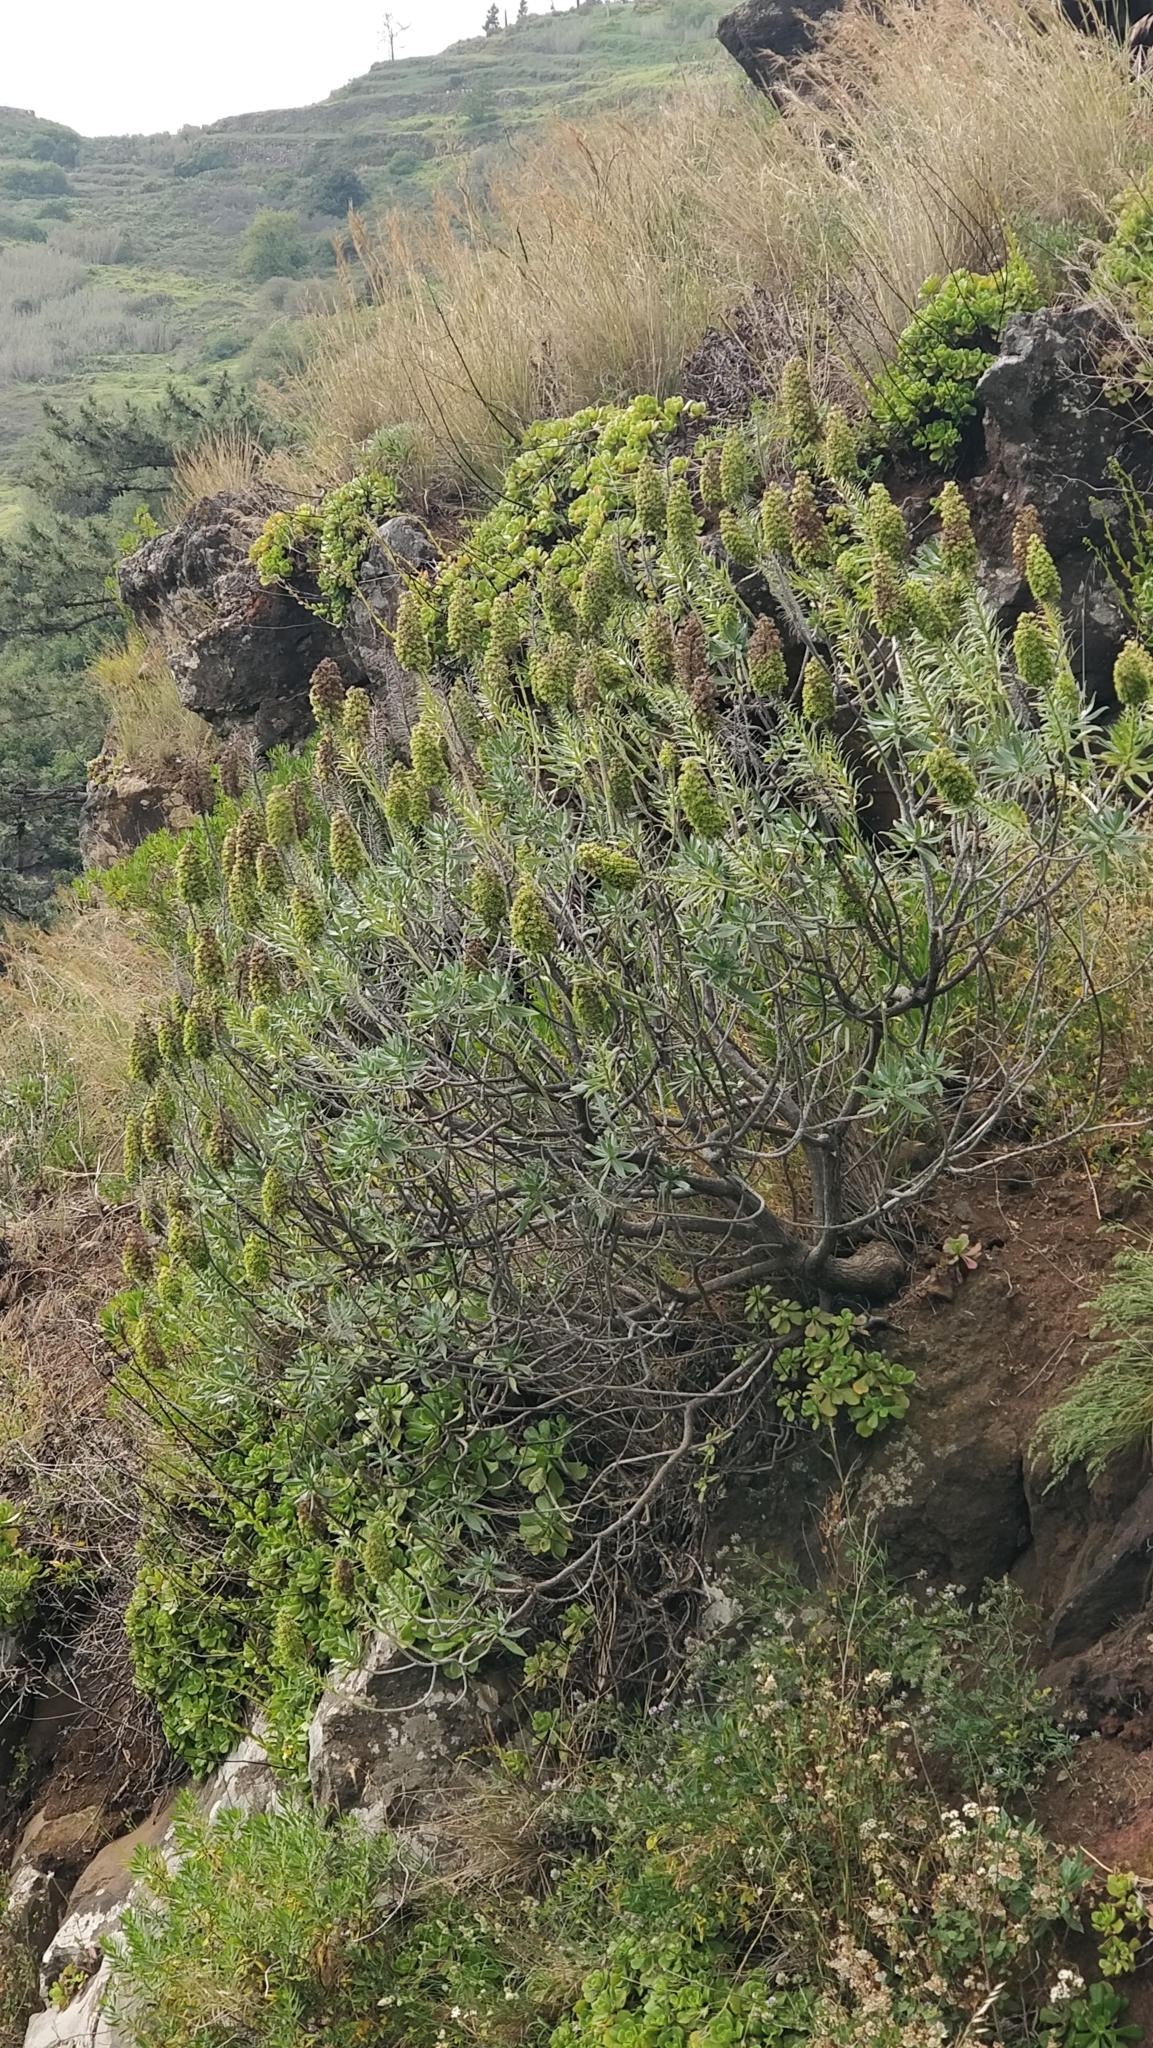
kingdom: Plantae
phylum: Tracheophyta
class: Magnoliopsida
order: Boraginales
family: Boraginaceae
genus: Echium
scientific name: Echium nervosum
